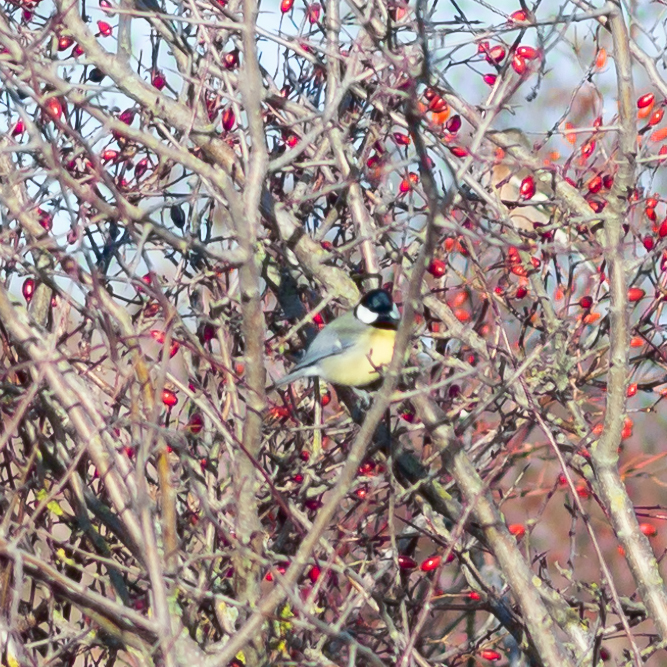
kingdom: Animalia
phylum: Chordata
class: Aves
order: Passeriformes
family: Paridae
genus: Parus
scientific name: Parus major
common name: Great tit
